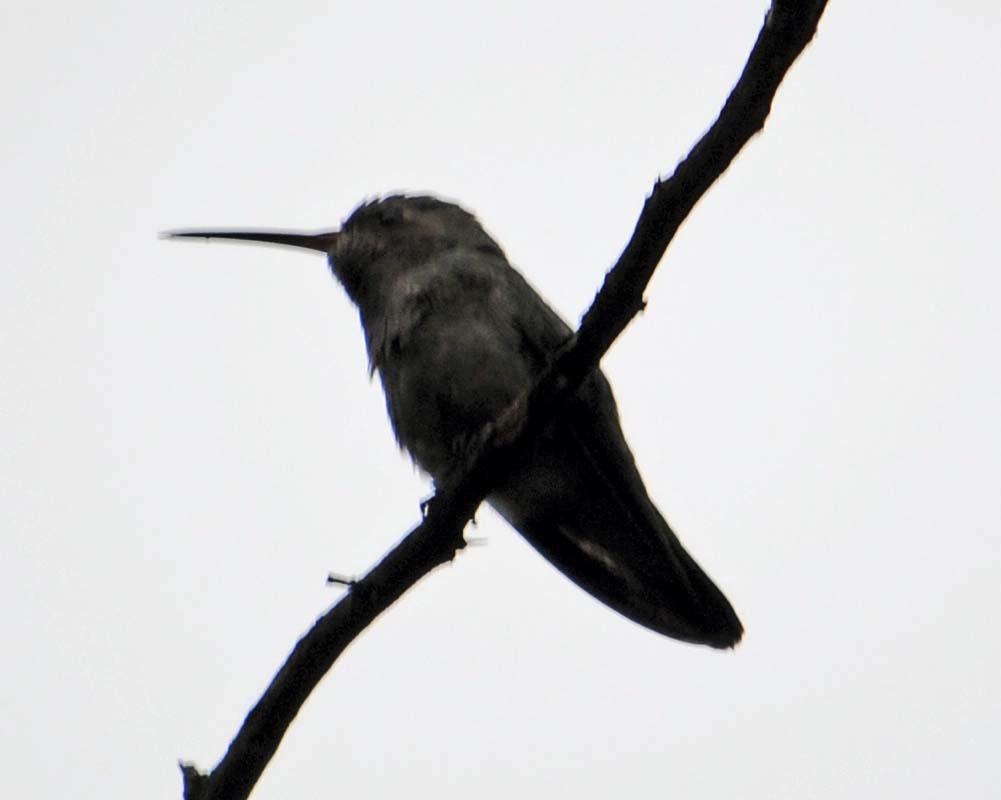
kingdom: Animalia
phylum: Chordata
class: Aves
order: Apodiformes
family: Trochilidae
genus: Cynanthus
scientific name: Cynanthus latirostris
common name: Broad-billed hummingbird
